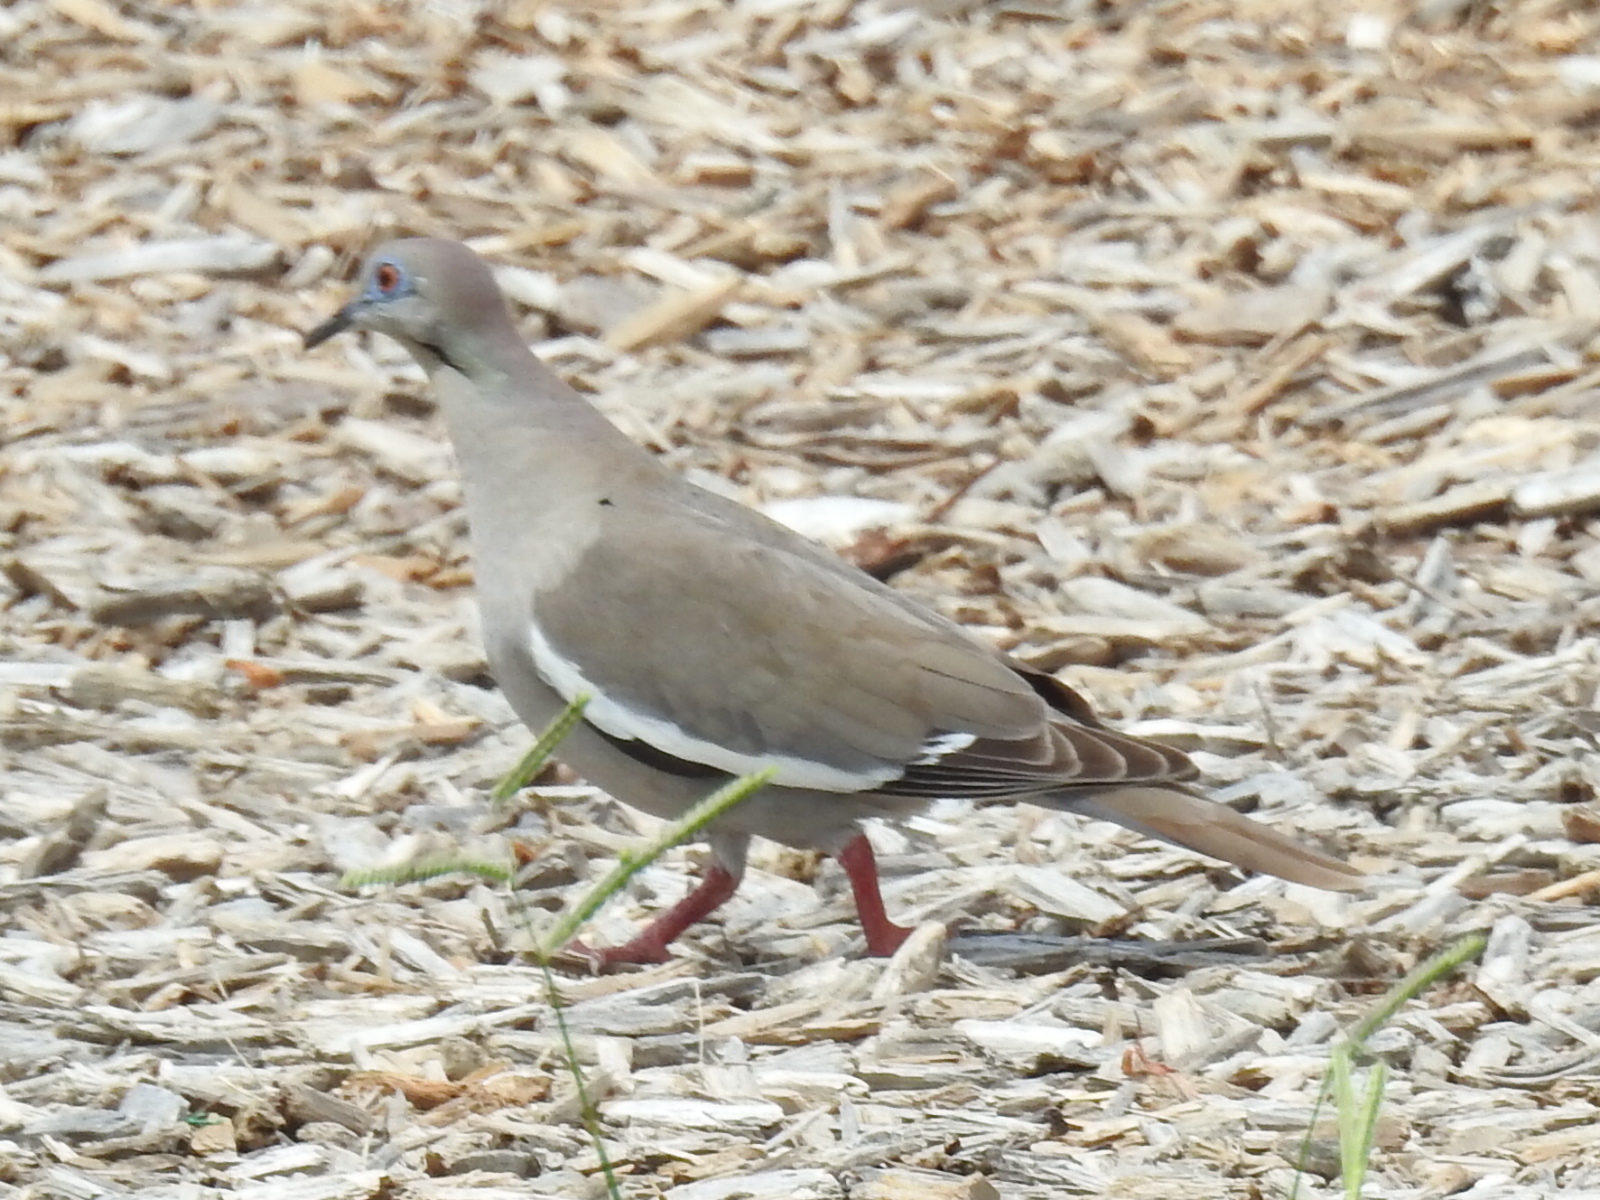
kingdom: Animalia
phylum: Chordata
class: Aves
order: Columbiformes
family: Columbidae
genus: Zenaida
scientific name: Zenaida asiatica
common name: White-winged dove
